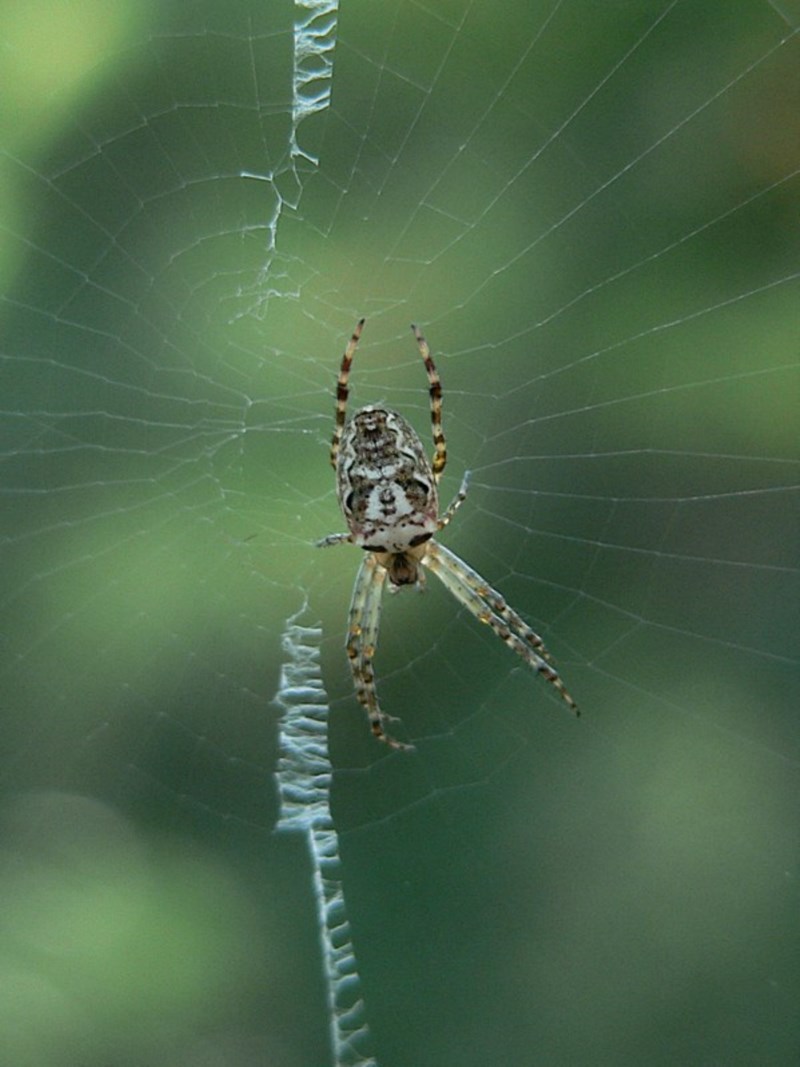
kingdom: Animalia
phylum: Arthropoda
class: Arachnida
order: Araneae
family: Araneidae
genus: Plebs
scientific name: Plebs eburnus
